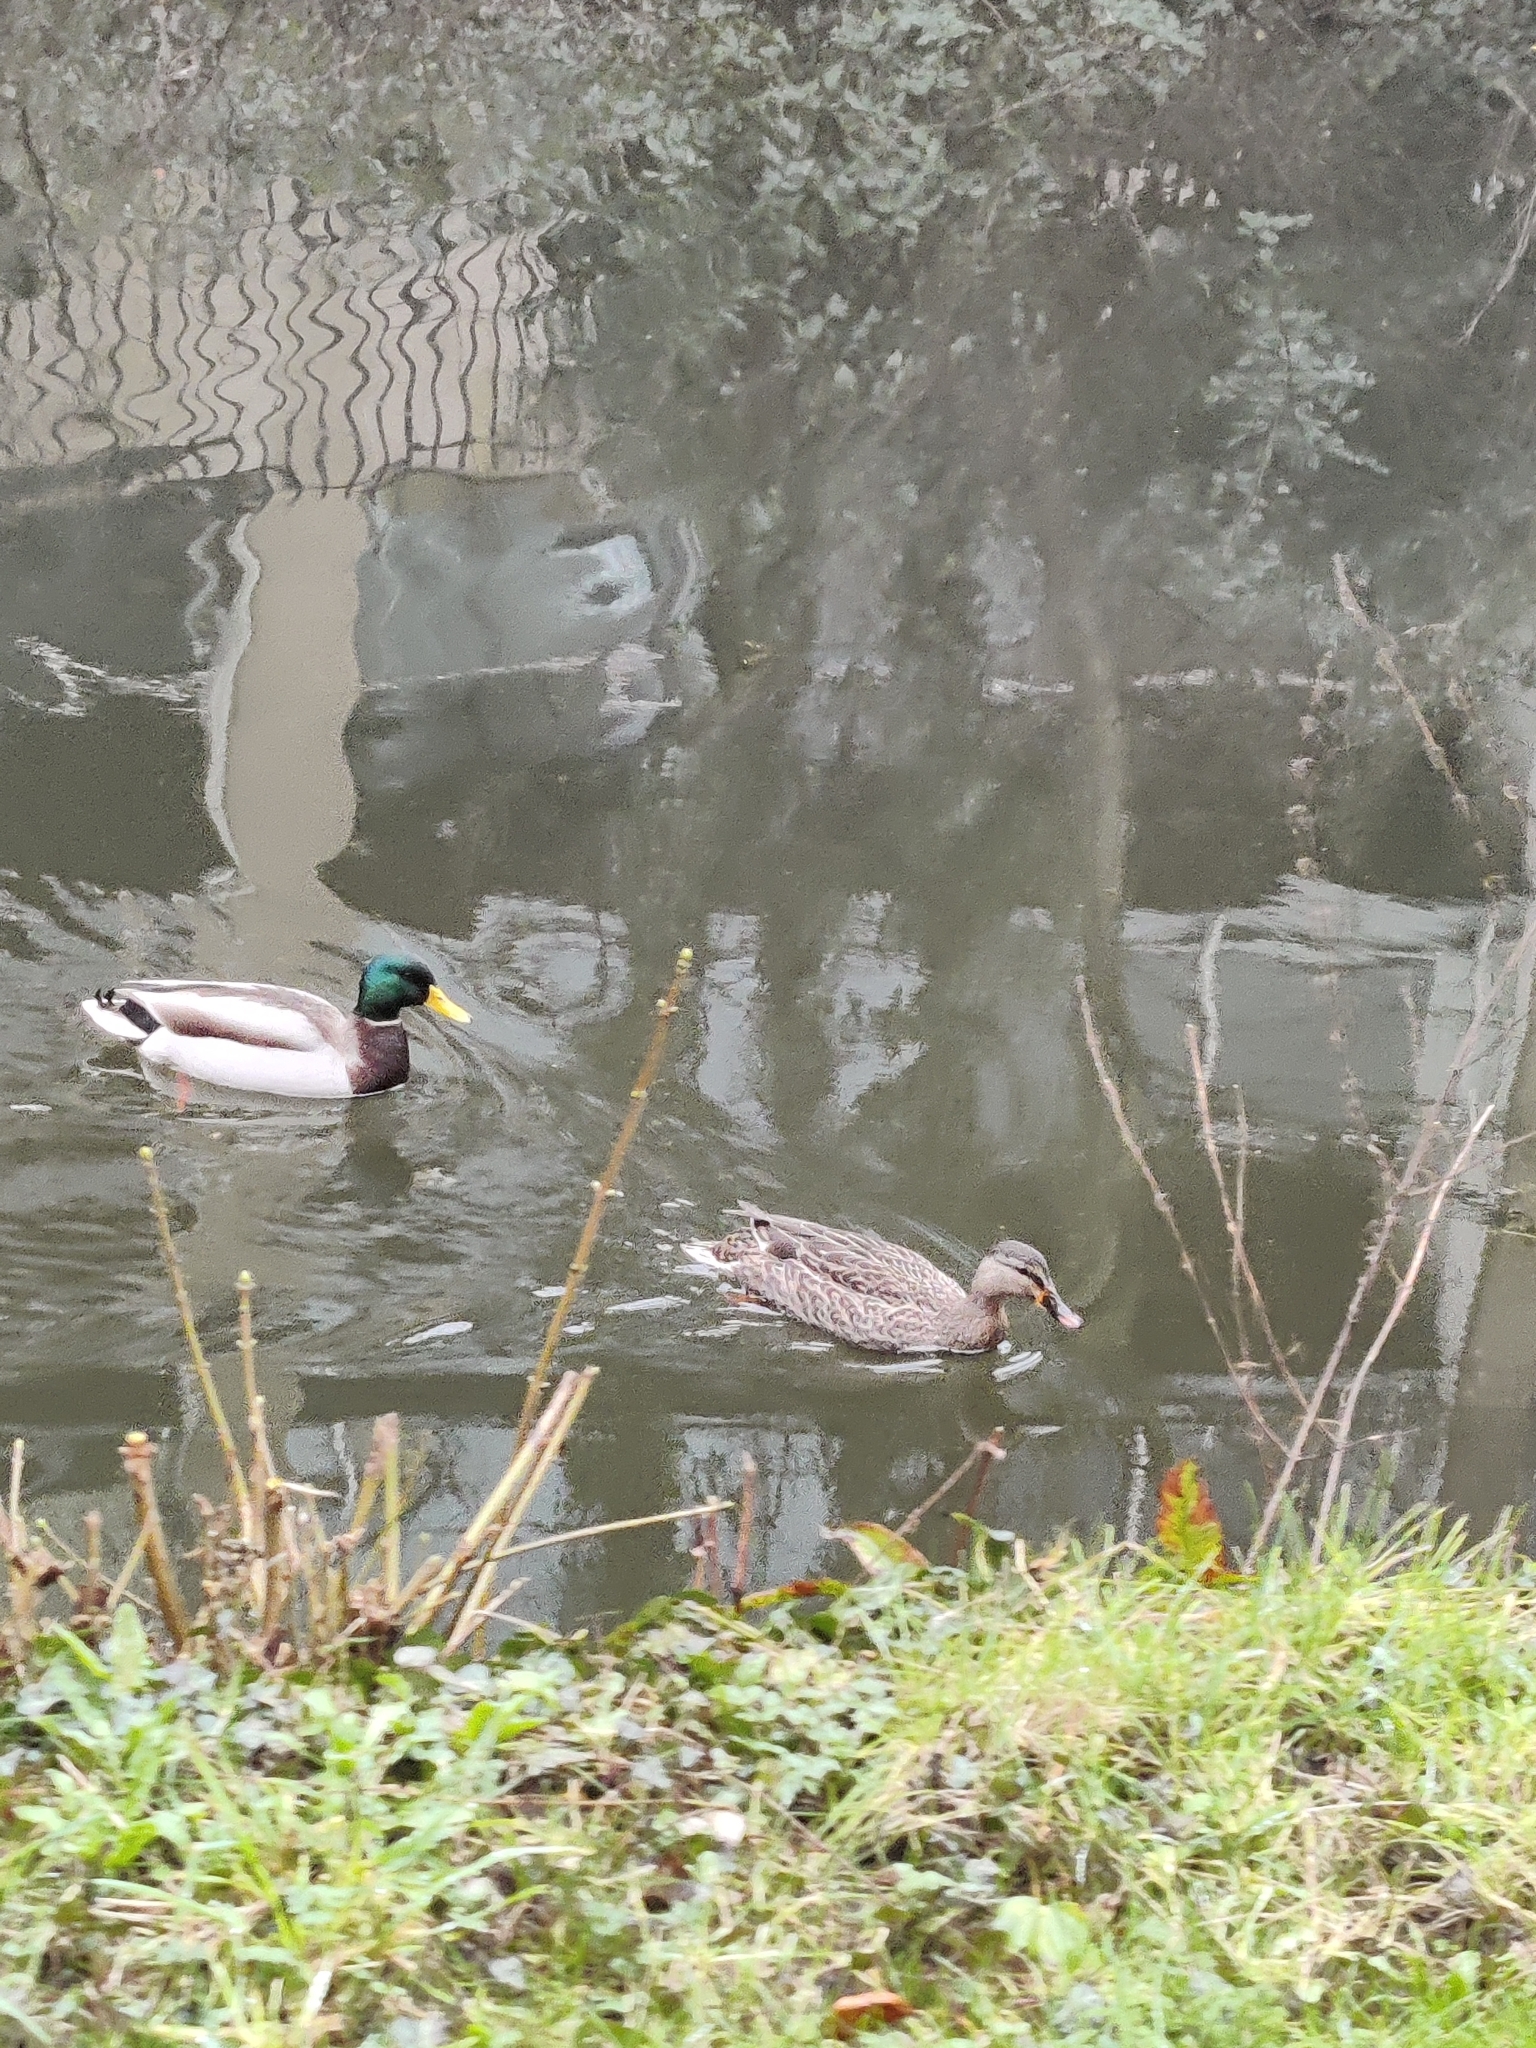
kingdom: Animalia
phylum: Chordata
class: Aves
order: Anseriformes
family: Anatidae
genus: Anas
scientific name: Anas platyrhynchos
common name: Mallard
